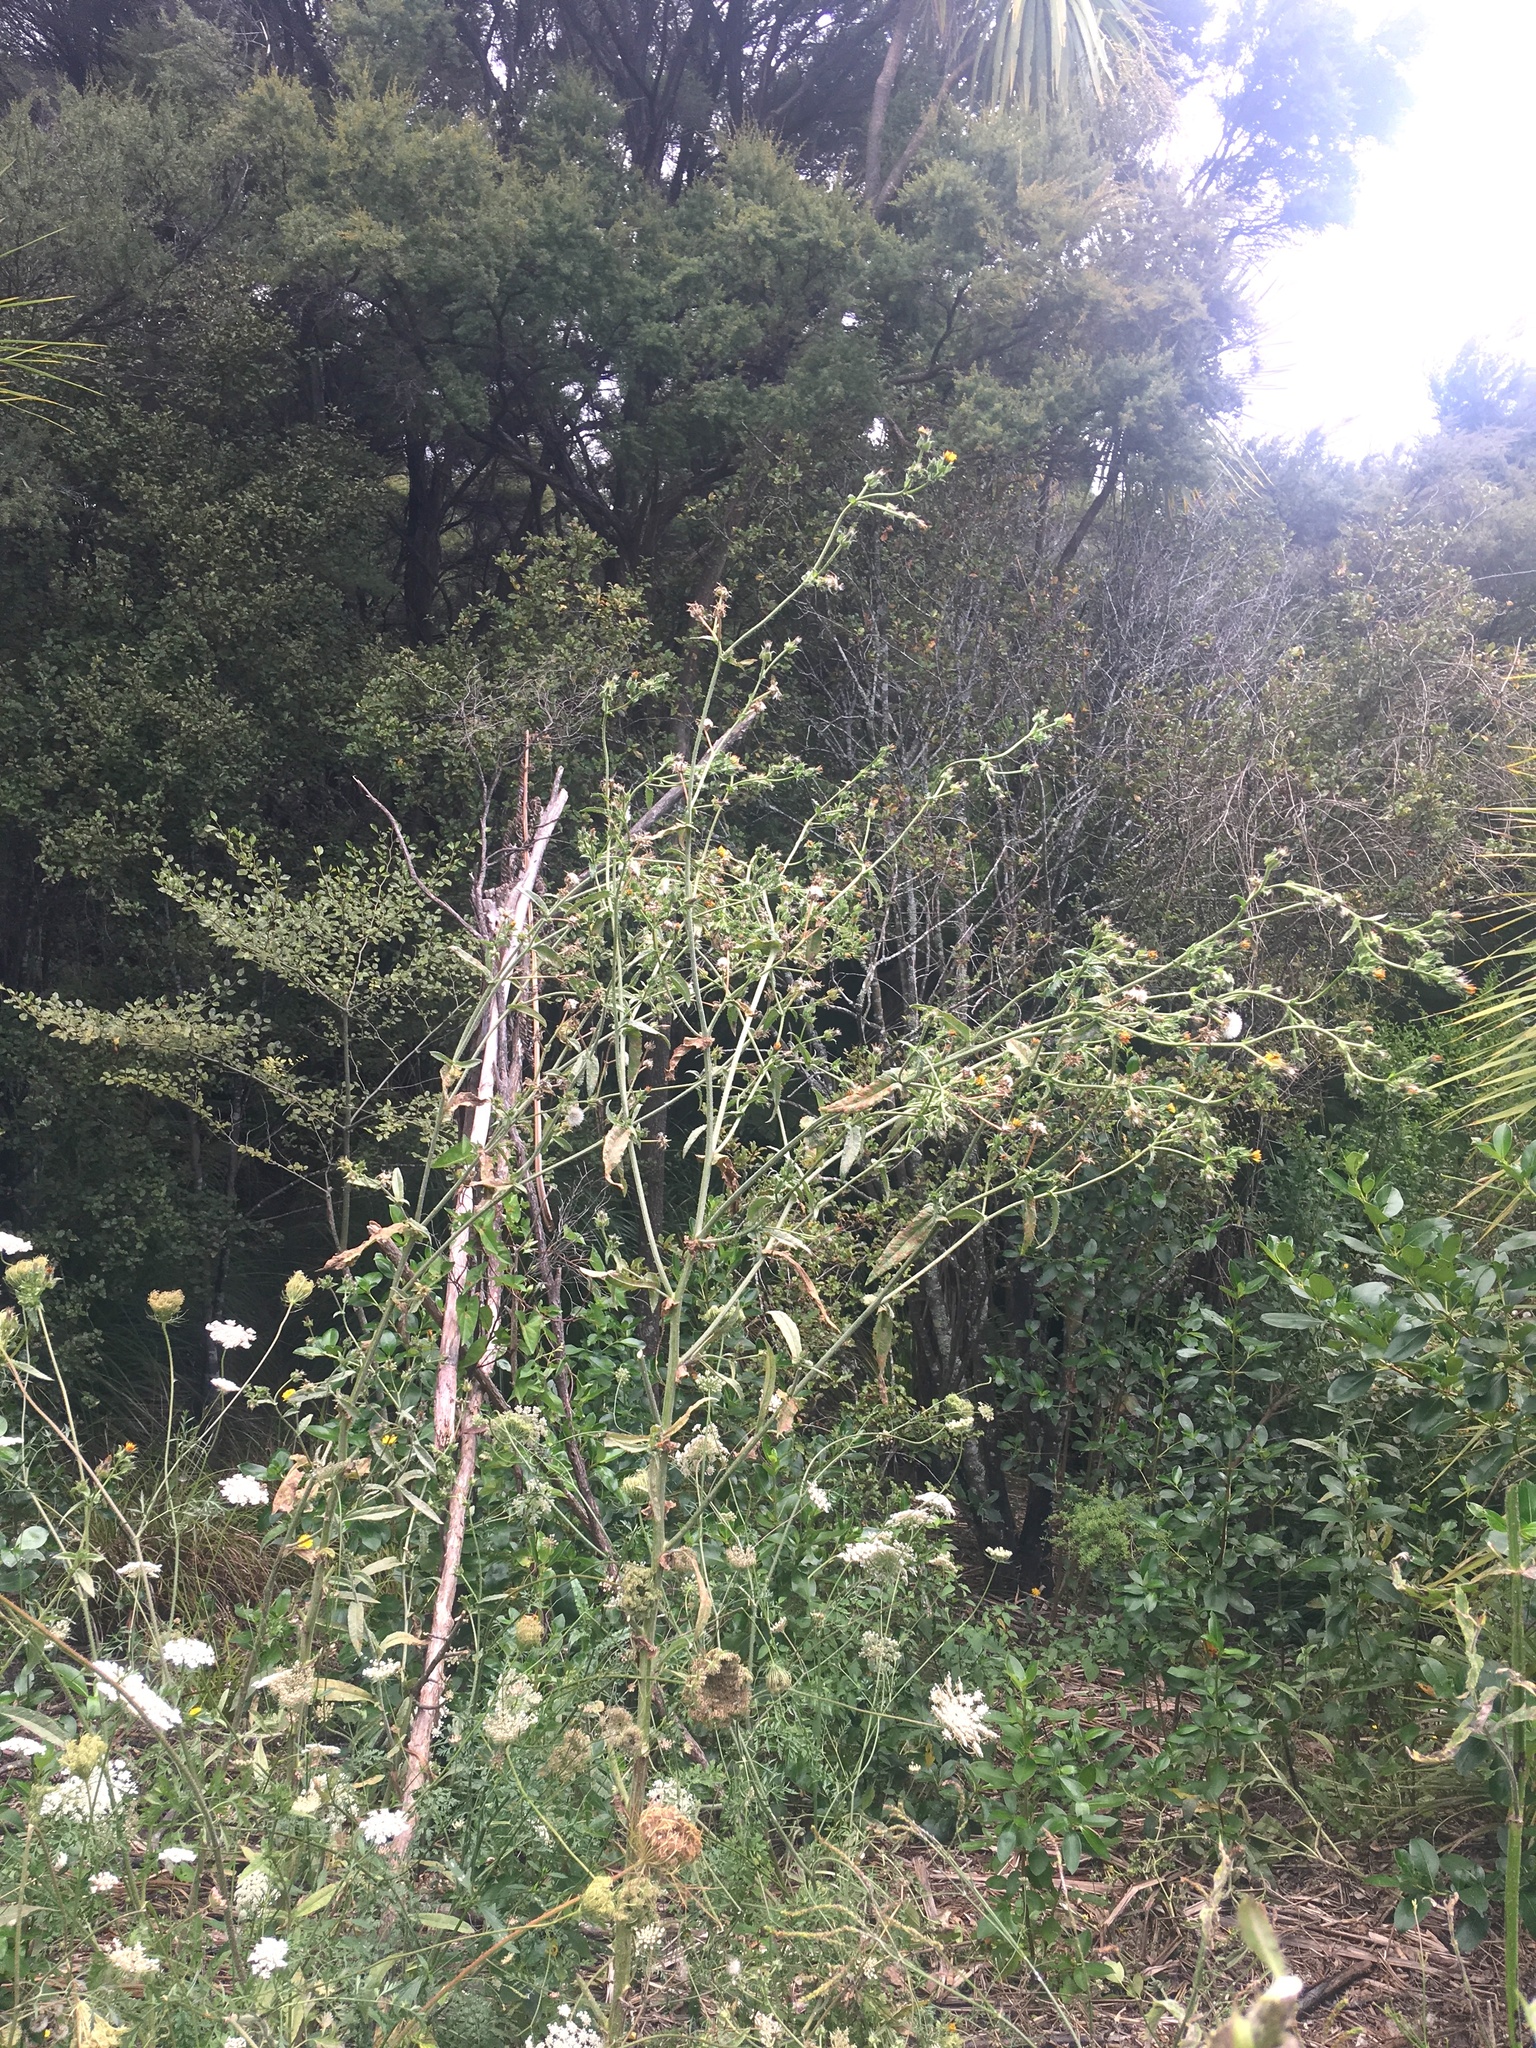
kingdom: Plantae
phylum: Tracheophyta
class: Magnoliopsida
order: Asterales
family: Asteraceae
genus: Helminthotheca
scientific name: Helminthotheca echioides
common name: Ox-tongue
